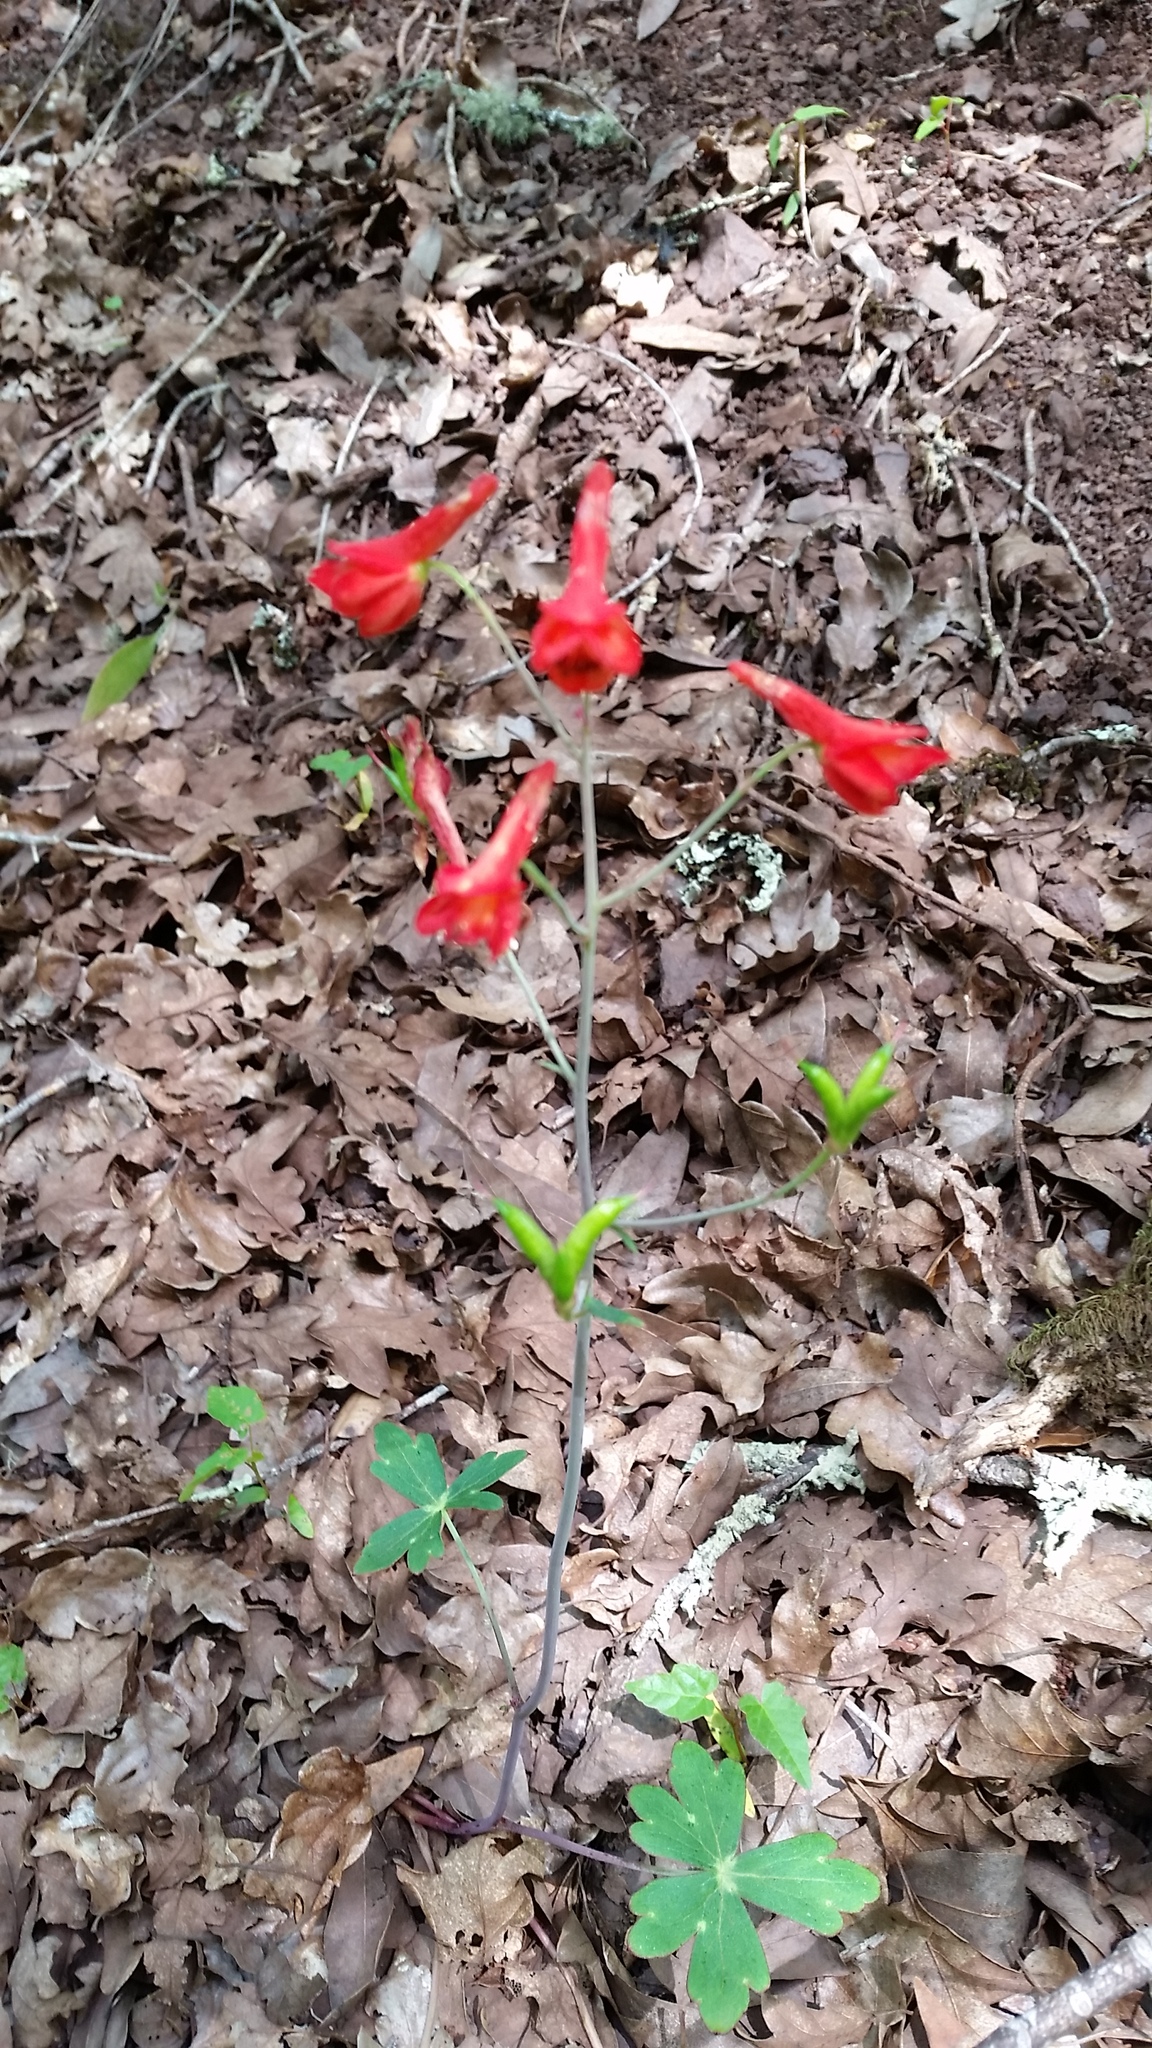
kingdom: Plantae
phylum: Tracheophyta
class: Magnoliopsida
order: Ranunculales
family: Ranunculaceae
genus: Delphinium
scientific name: Delphinium nudicaule
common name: Red larkspur
